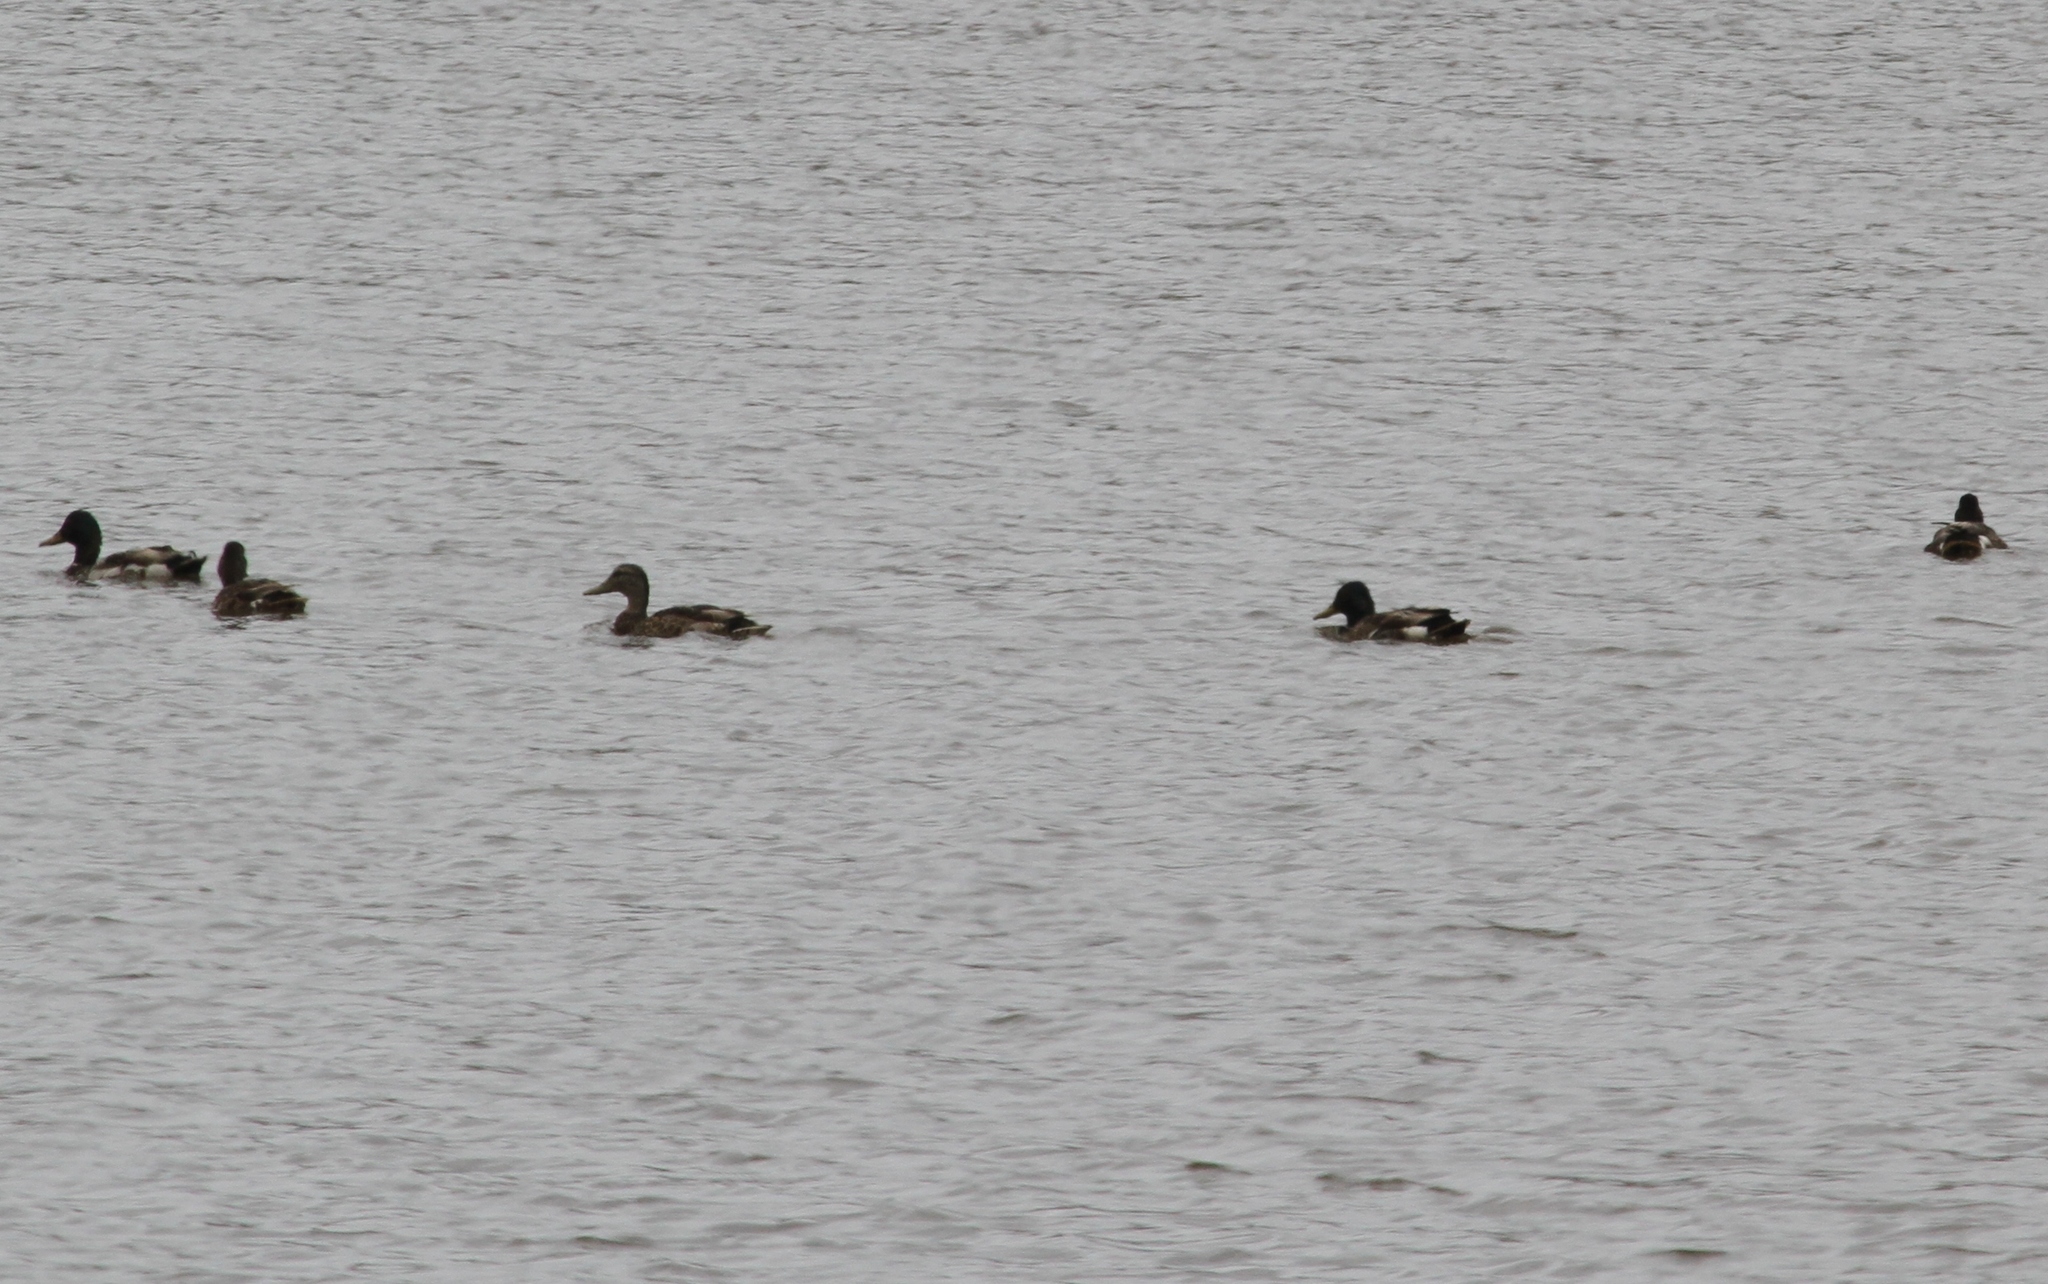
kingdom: Animalia
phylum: Chordata
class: Aves
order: Anseriformes
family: Anatidae
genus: Anas
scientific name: Anas platyrhynchos
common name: Mallard
